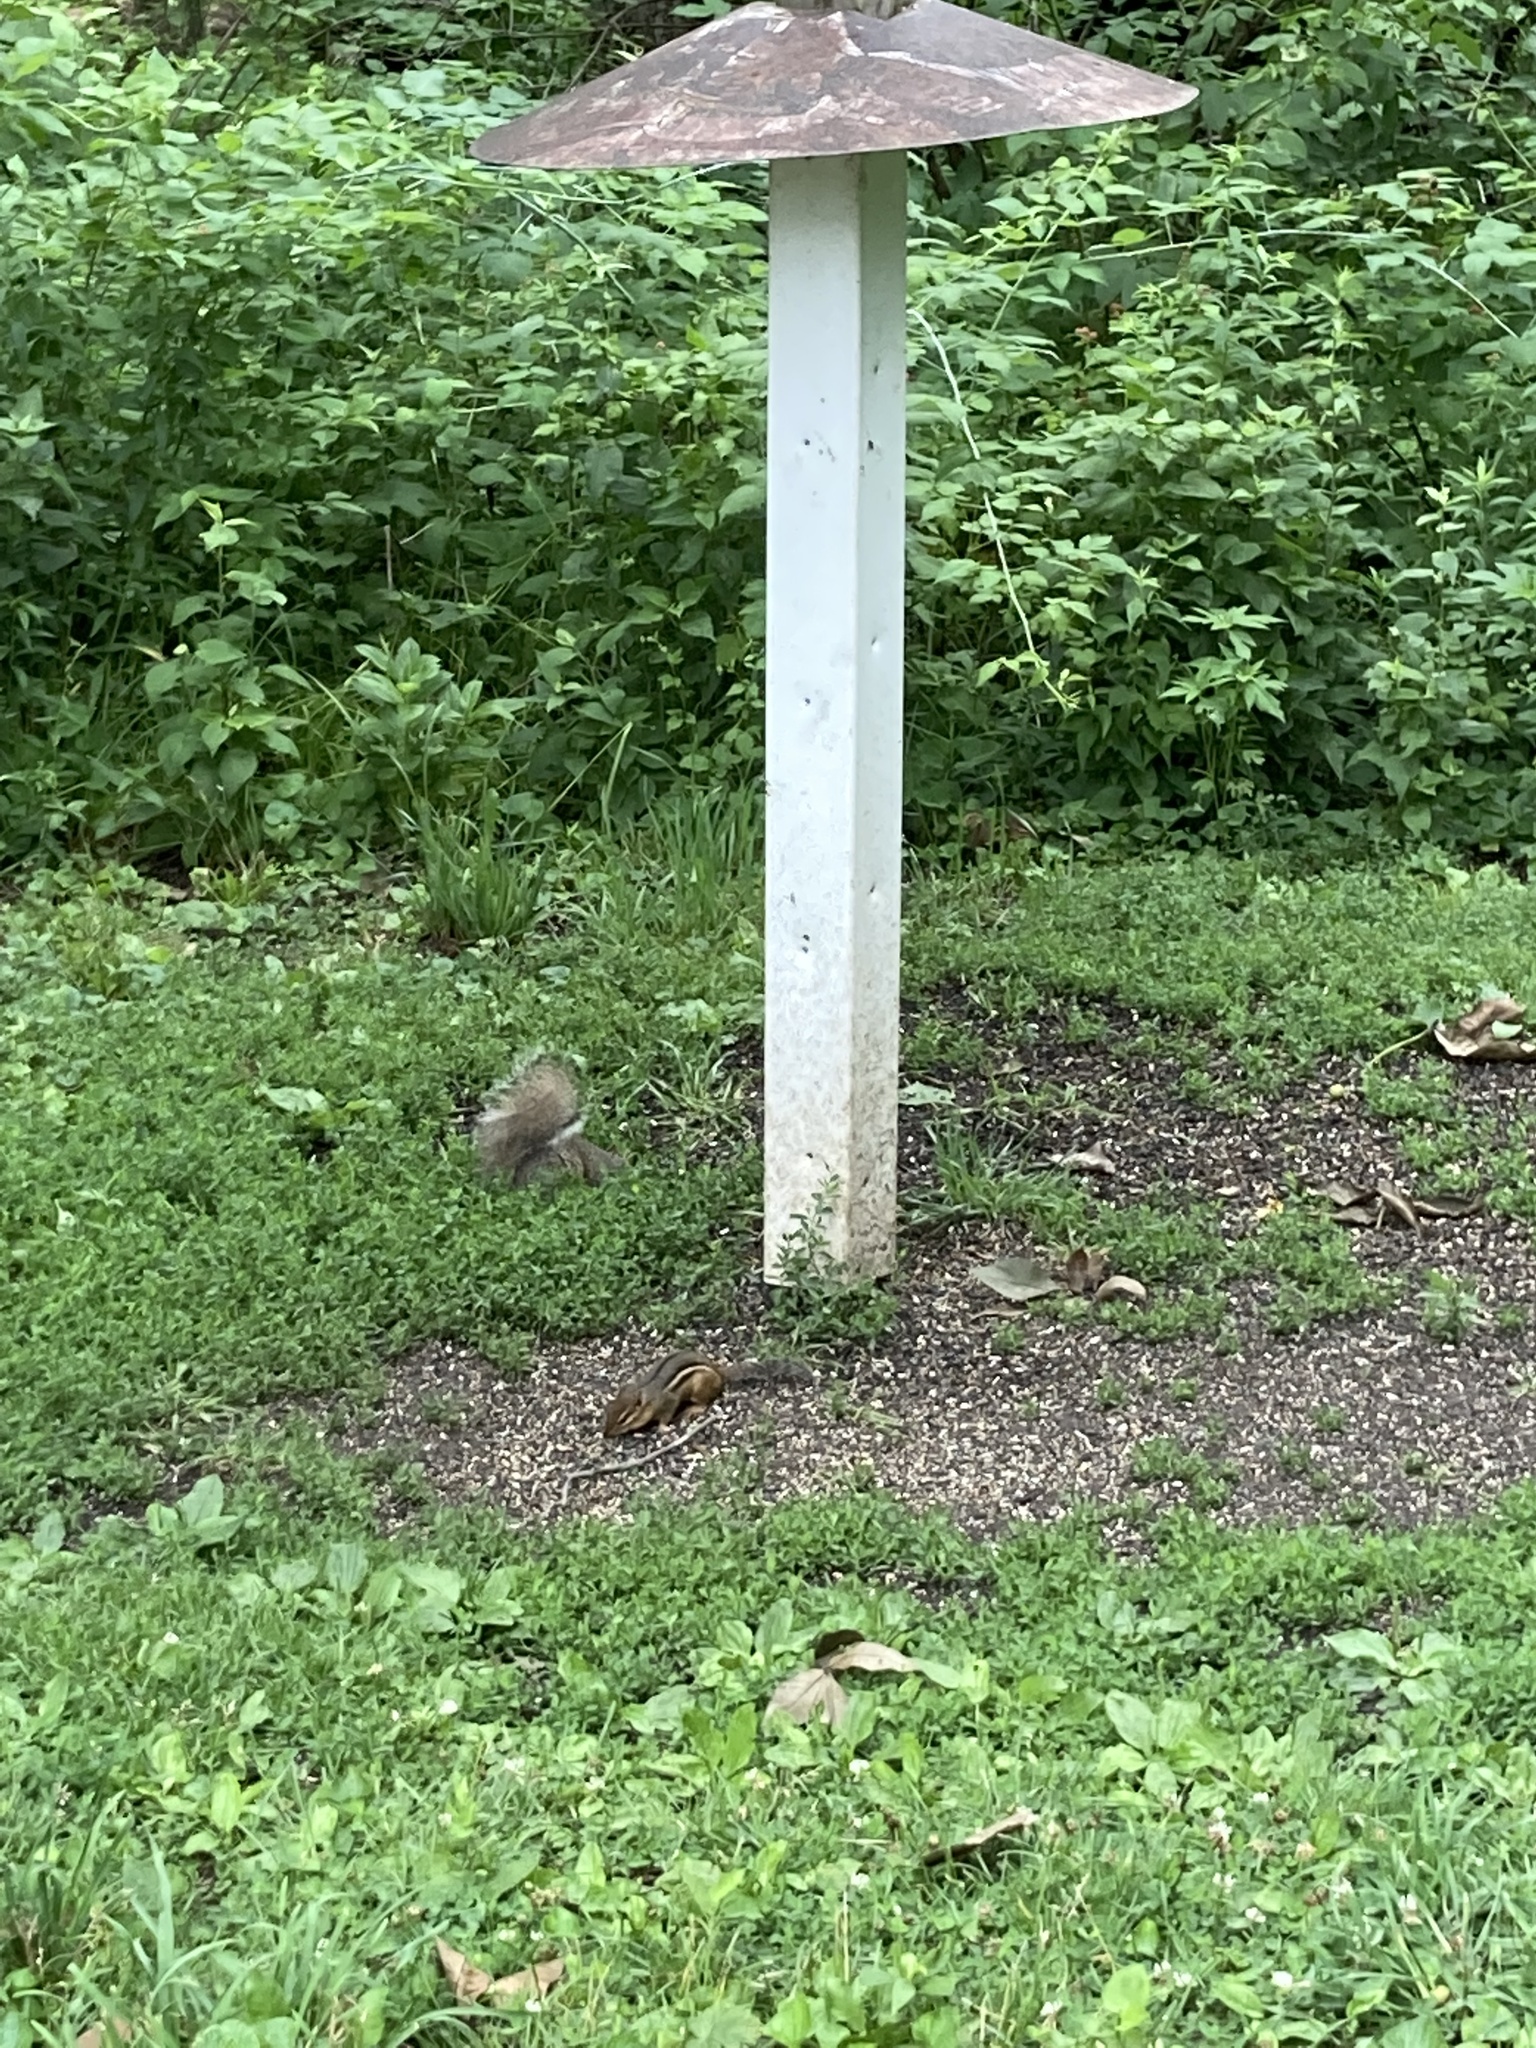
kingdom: Animalia
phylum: Chordata
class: Mammalia
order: Rodentia
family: Sciuridae
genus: Tamias
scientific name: Tamias striatus
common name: Eastern chipmunk
